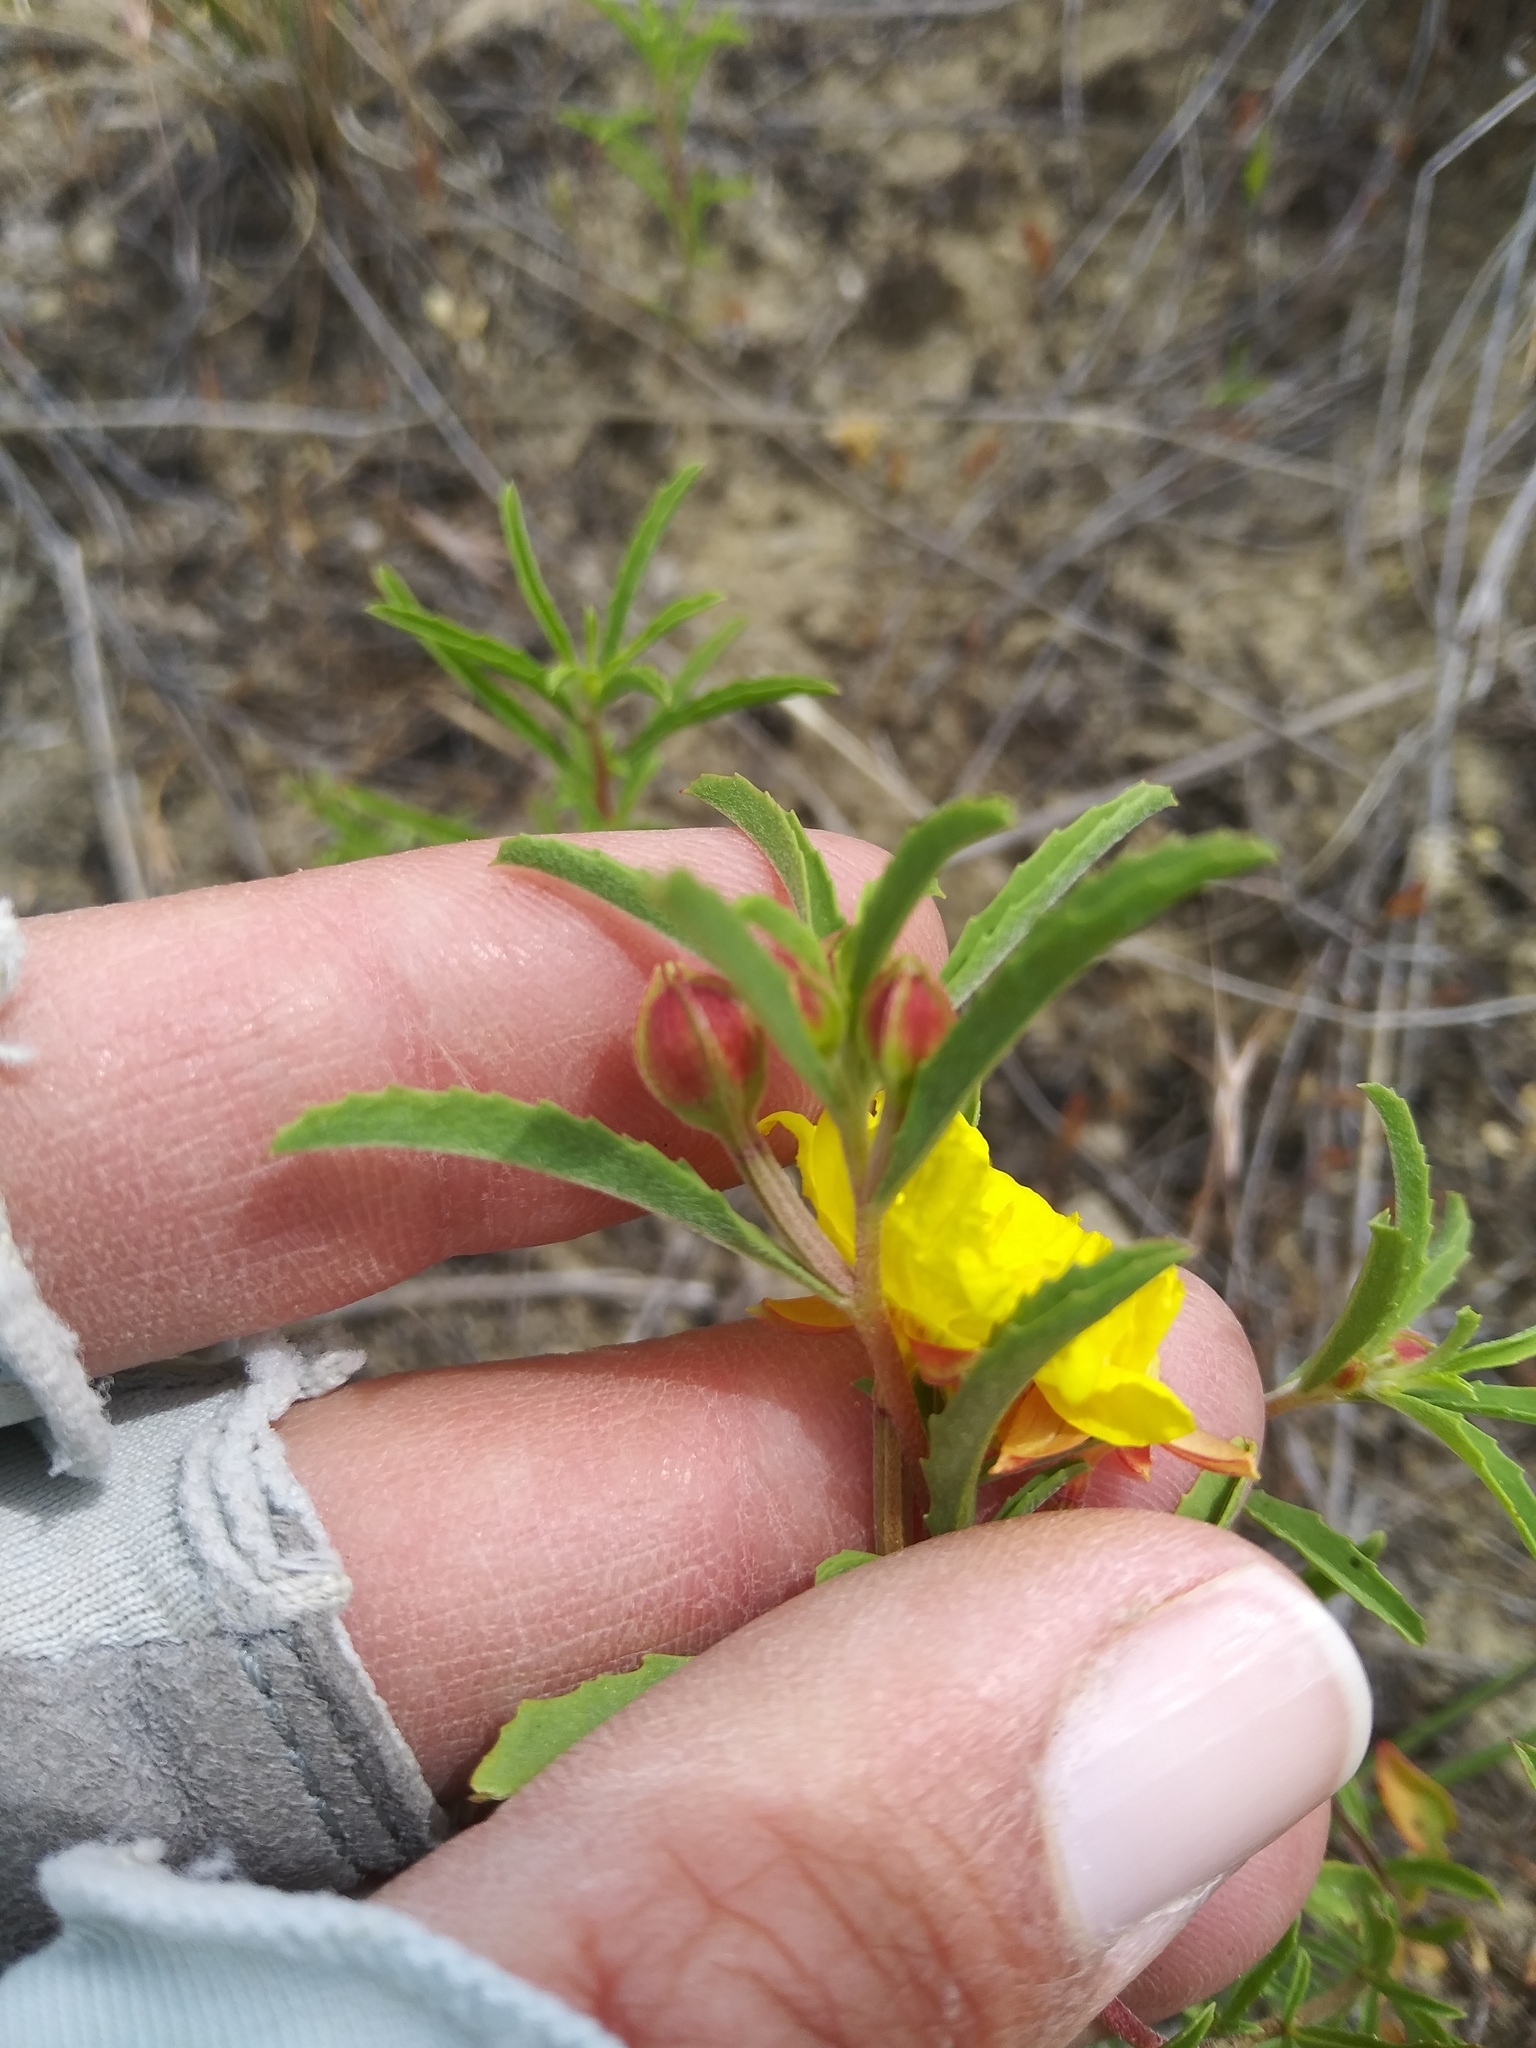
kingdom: Plantae
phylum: Tracheophyta
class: Magnoliopsida
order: Myrtales
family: Onagraceae
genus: Oenothera
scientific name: Oenothera serrulata
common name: Half-shrub calylophus
